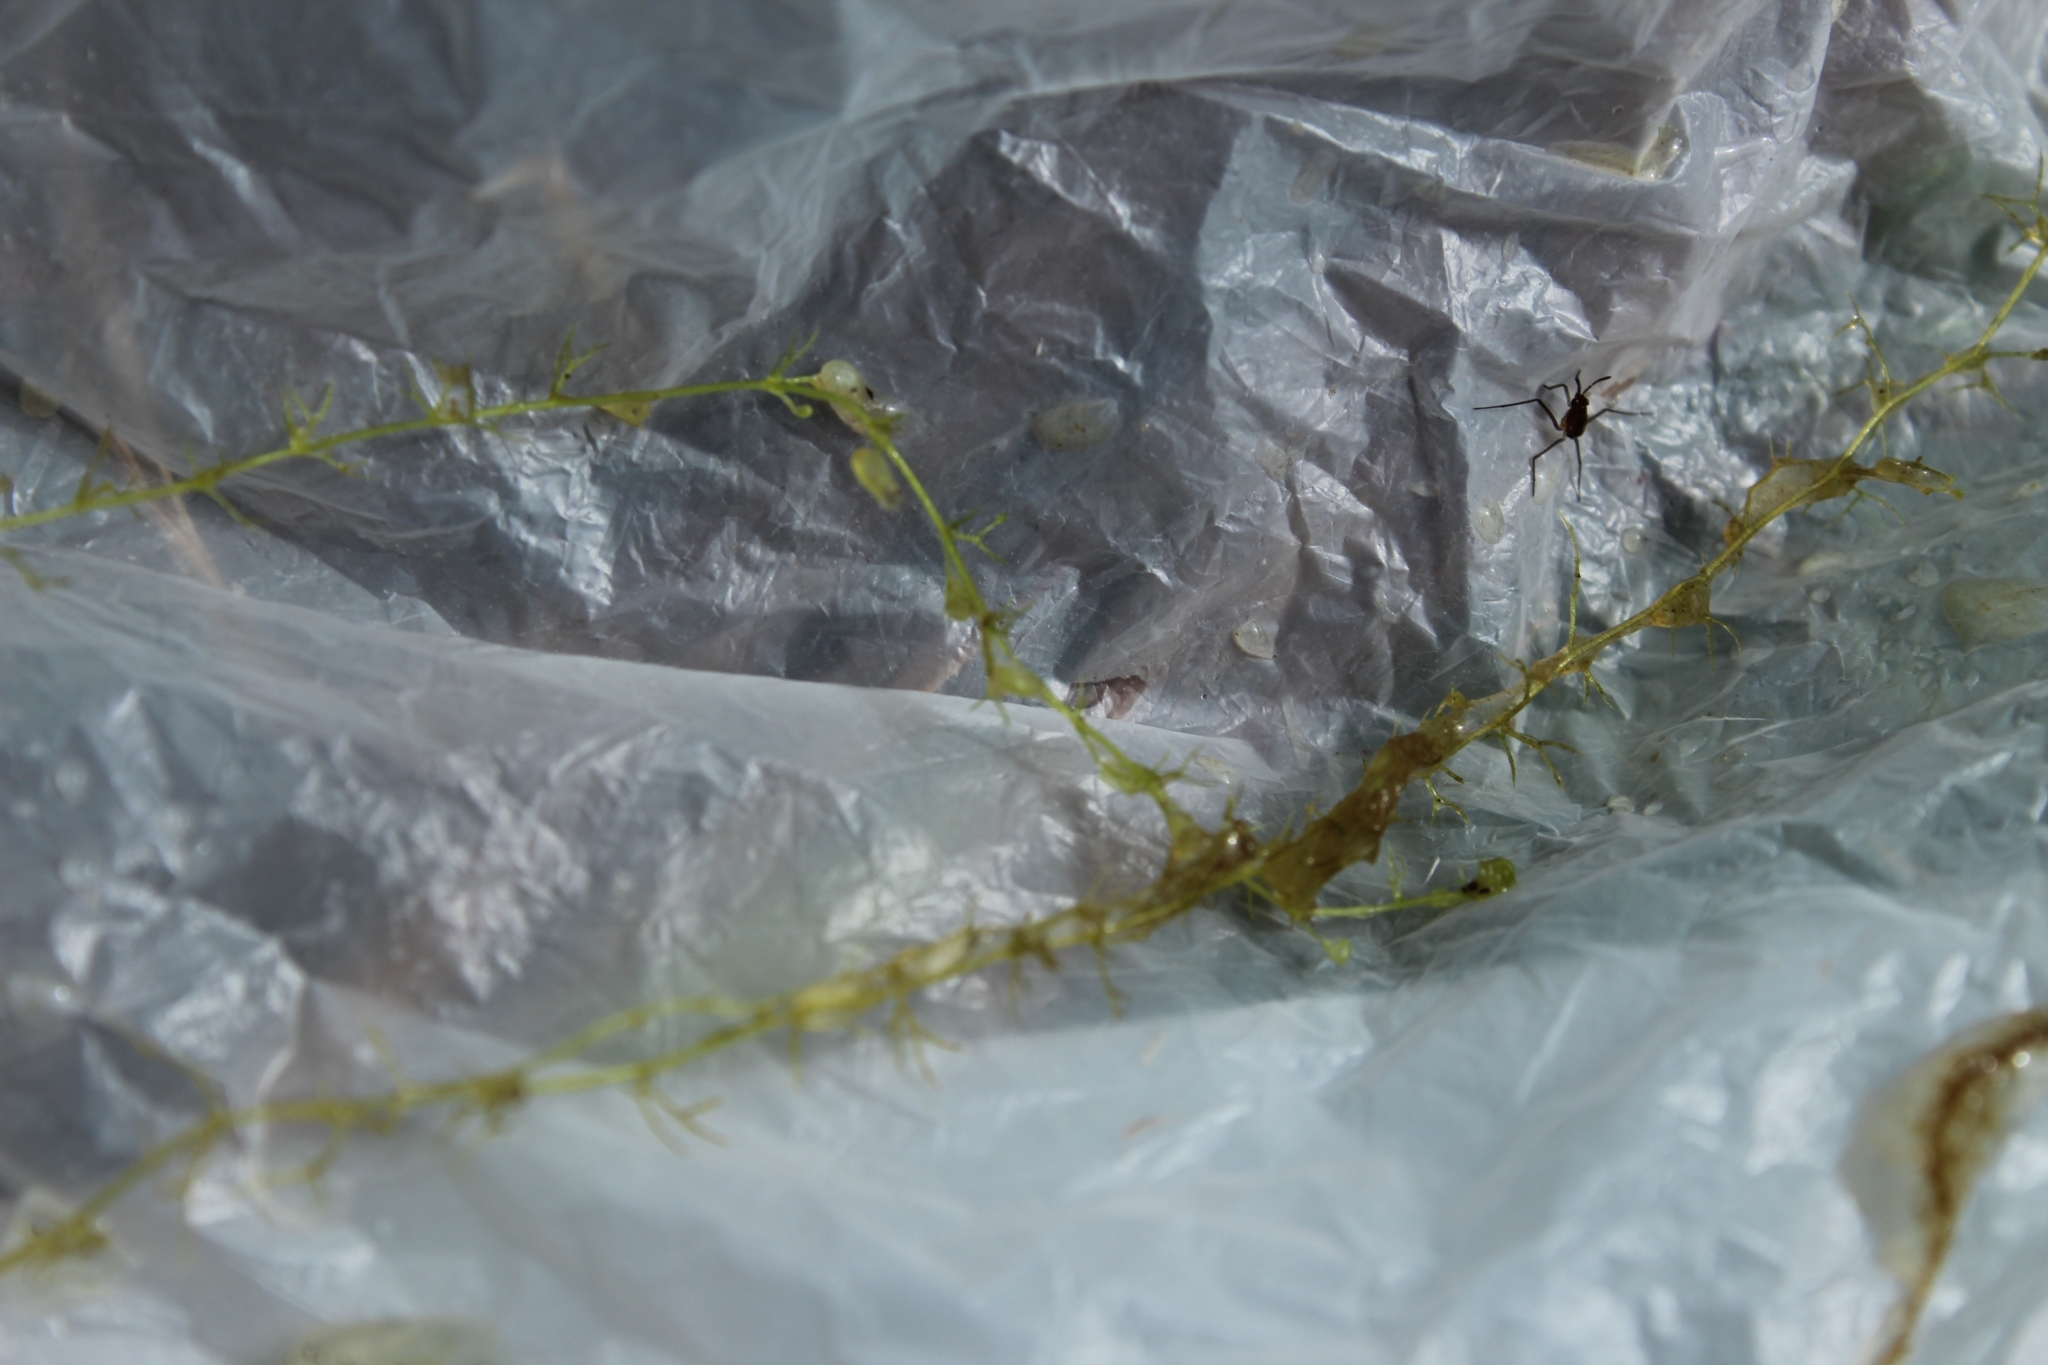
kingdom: Plantae
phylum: Tracheophyta
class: Magnoliopsida
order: Lamiales
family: Lentibulariaceae
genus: Utricularia
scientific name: Utricularia minor
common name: Lesser bladderwort
